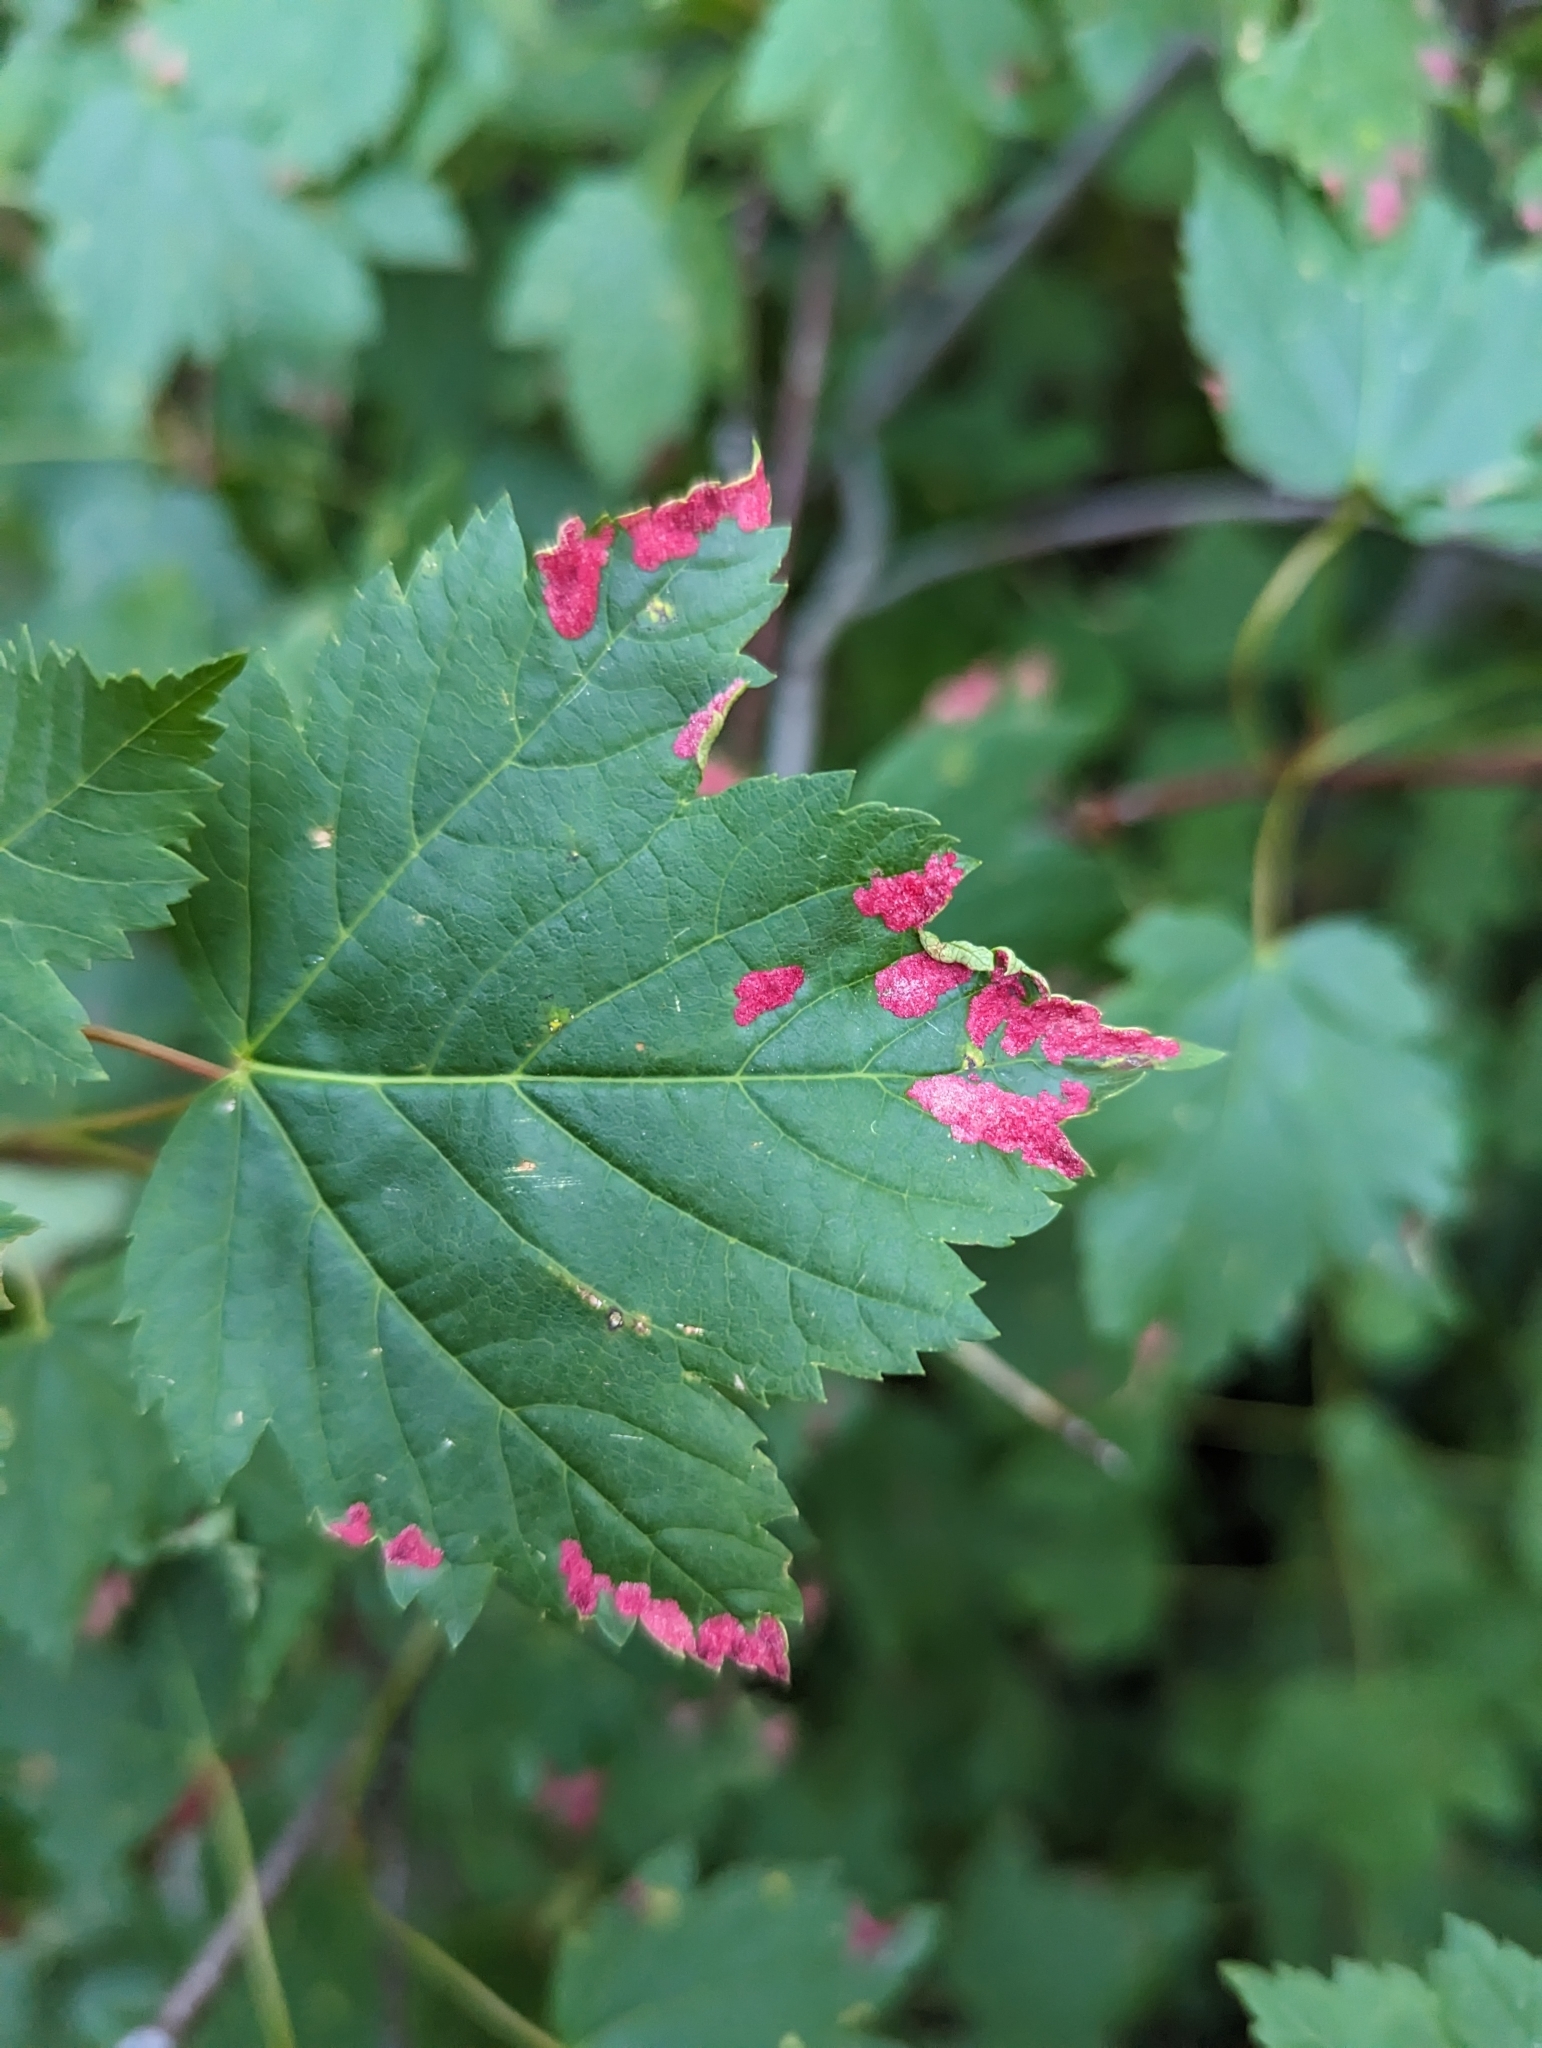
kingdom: Animalia
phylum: Arthropoda
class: Arachnida
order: Trombidiformes
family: Eriophyidae
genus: Aceria
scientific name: Aceria
